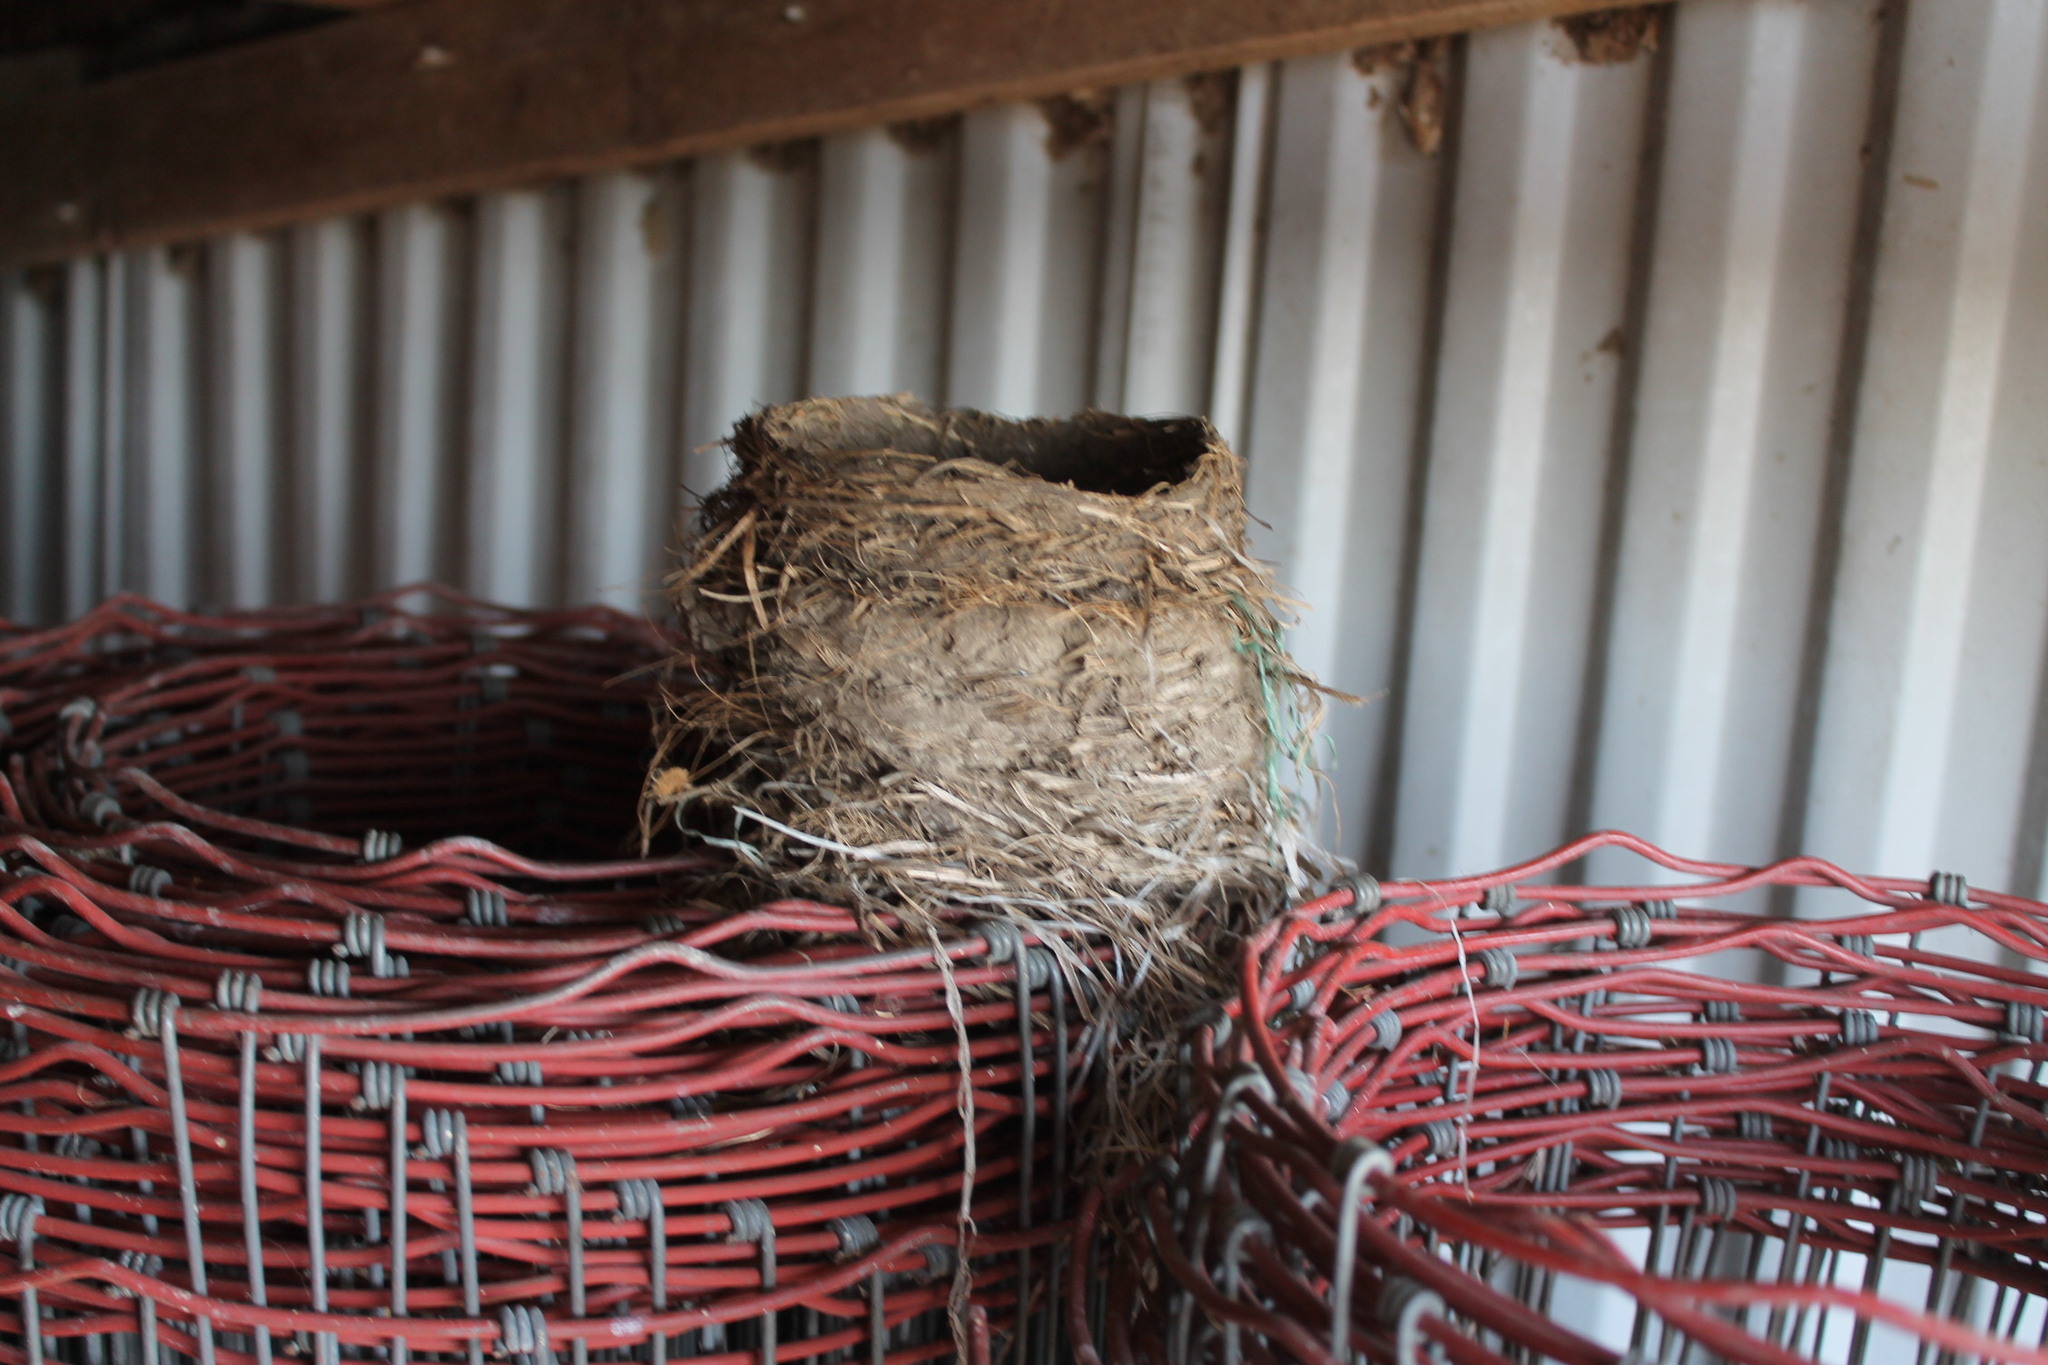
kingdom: Animalia
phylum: Chordata
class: Aves
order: Passeriformes
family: Turdidae
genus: Turdus
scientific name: Turdus migratorius
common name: American robin
